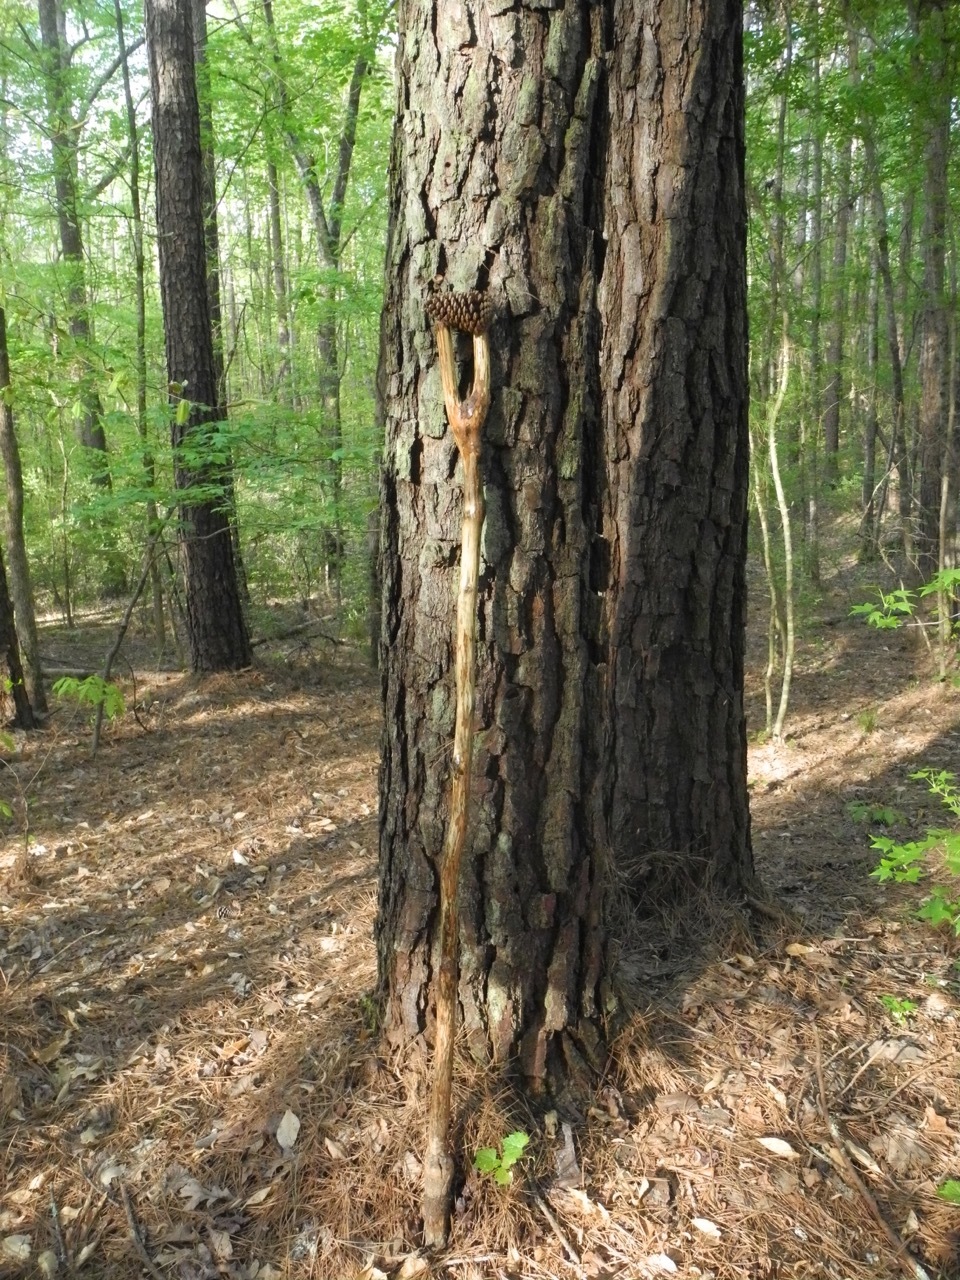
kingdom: Plantae
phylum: Tracheophyta
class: Pinopsida
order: Pinales
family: Pinaceae
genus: Pinus
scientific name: Pinus taeda
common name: Loblolly pine
